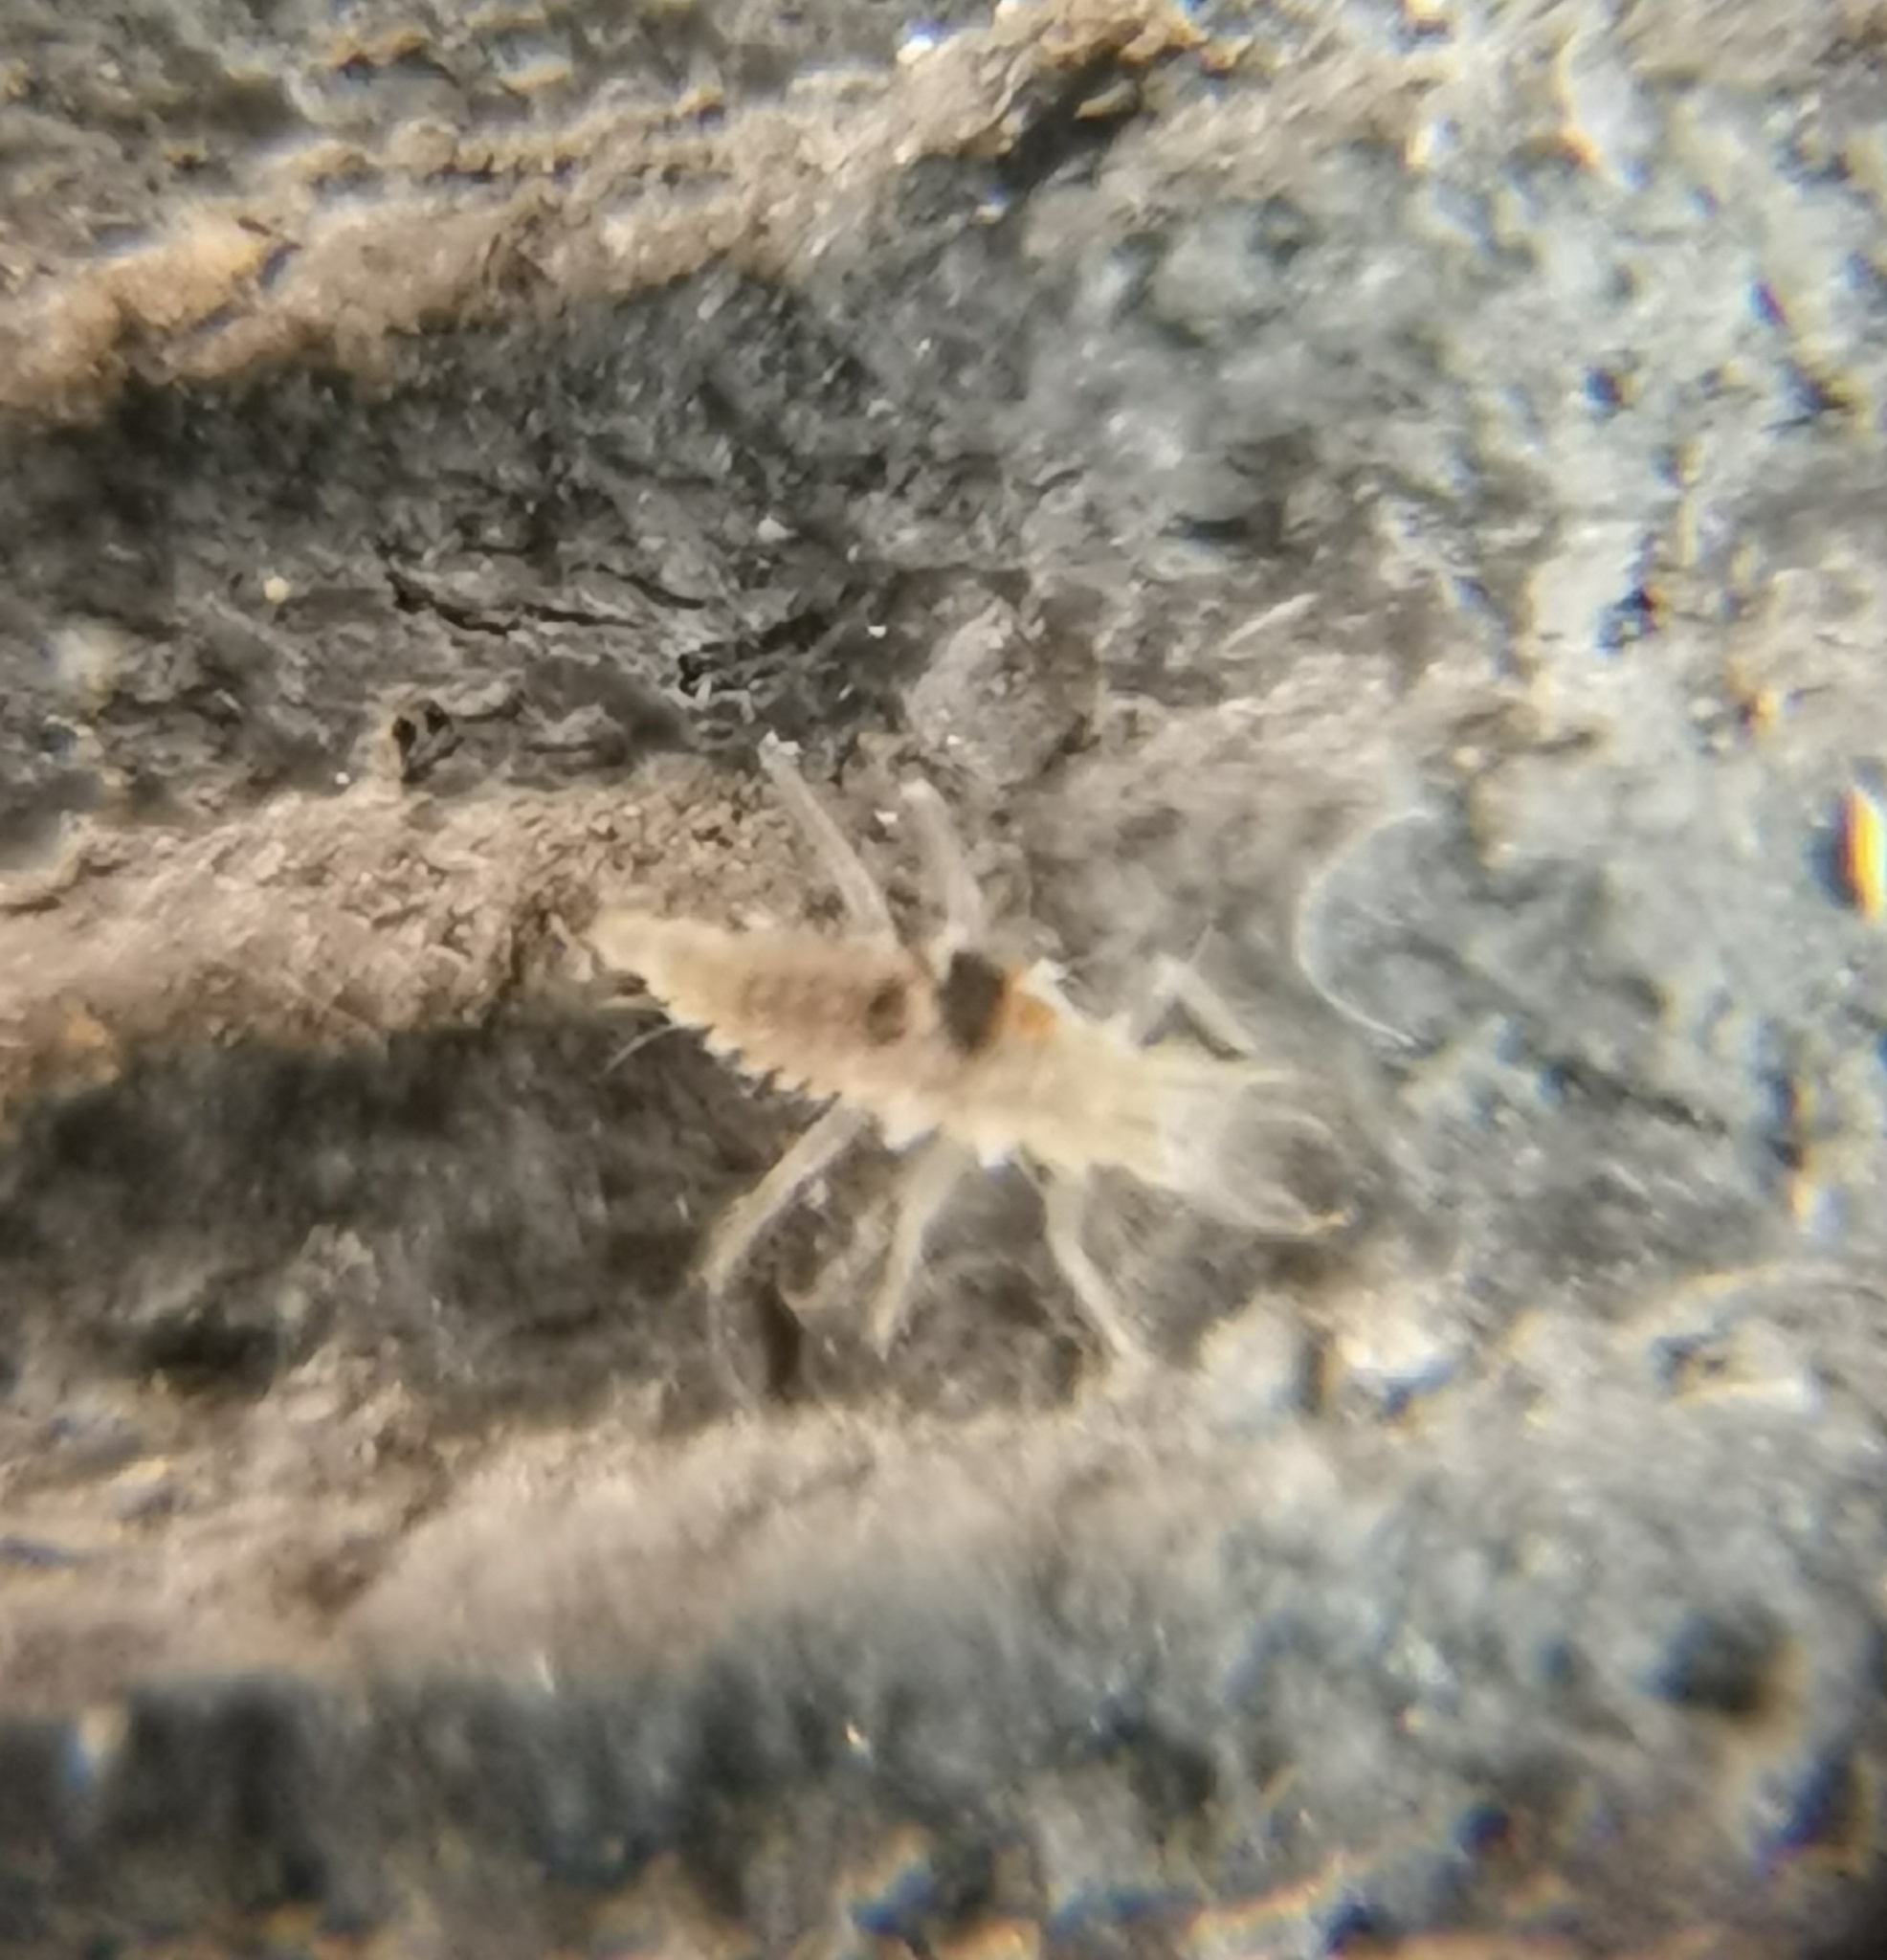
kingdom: Animalia
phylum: Arthropoda
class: Insecta
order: Neuroptera
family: Chrysopidae
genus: Mallada
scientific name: Mallada basalis
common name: Green lacewing
